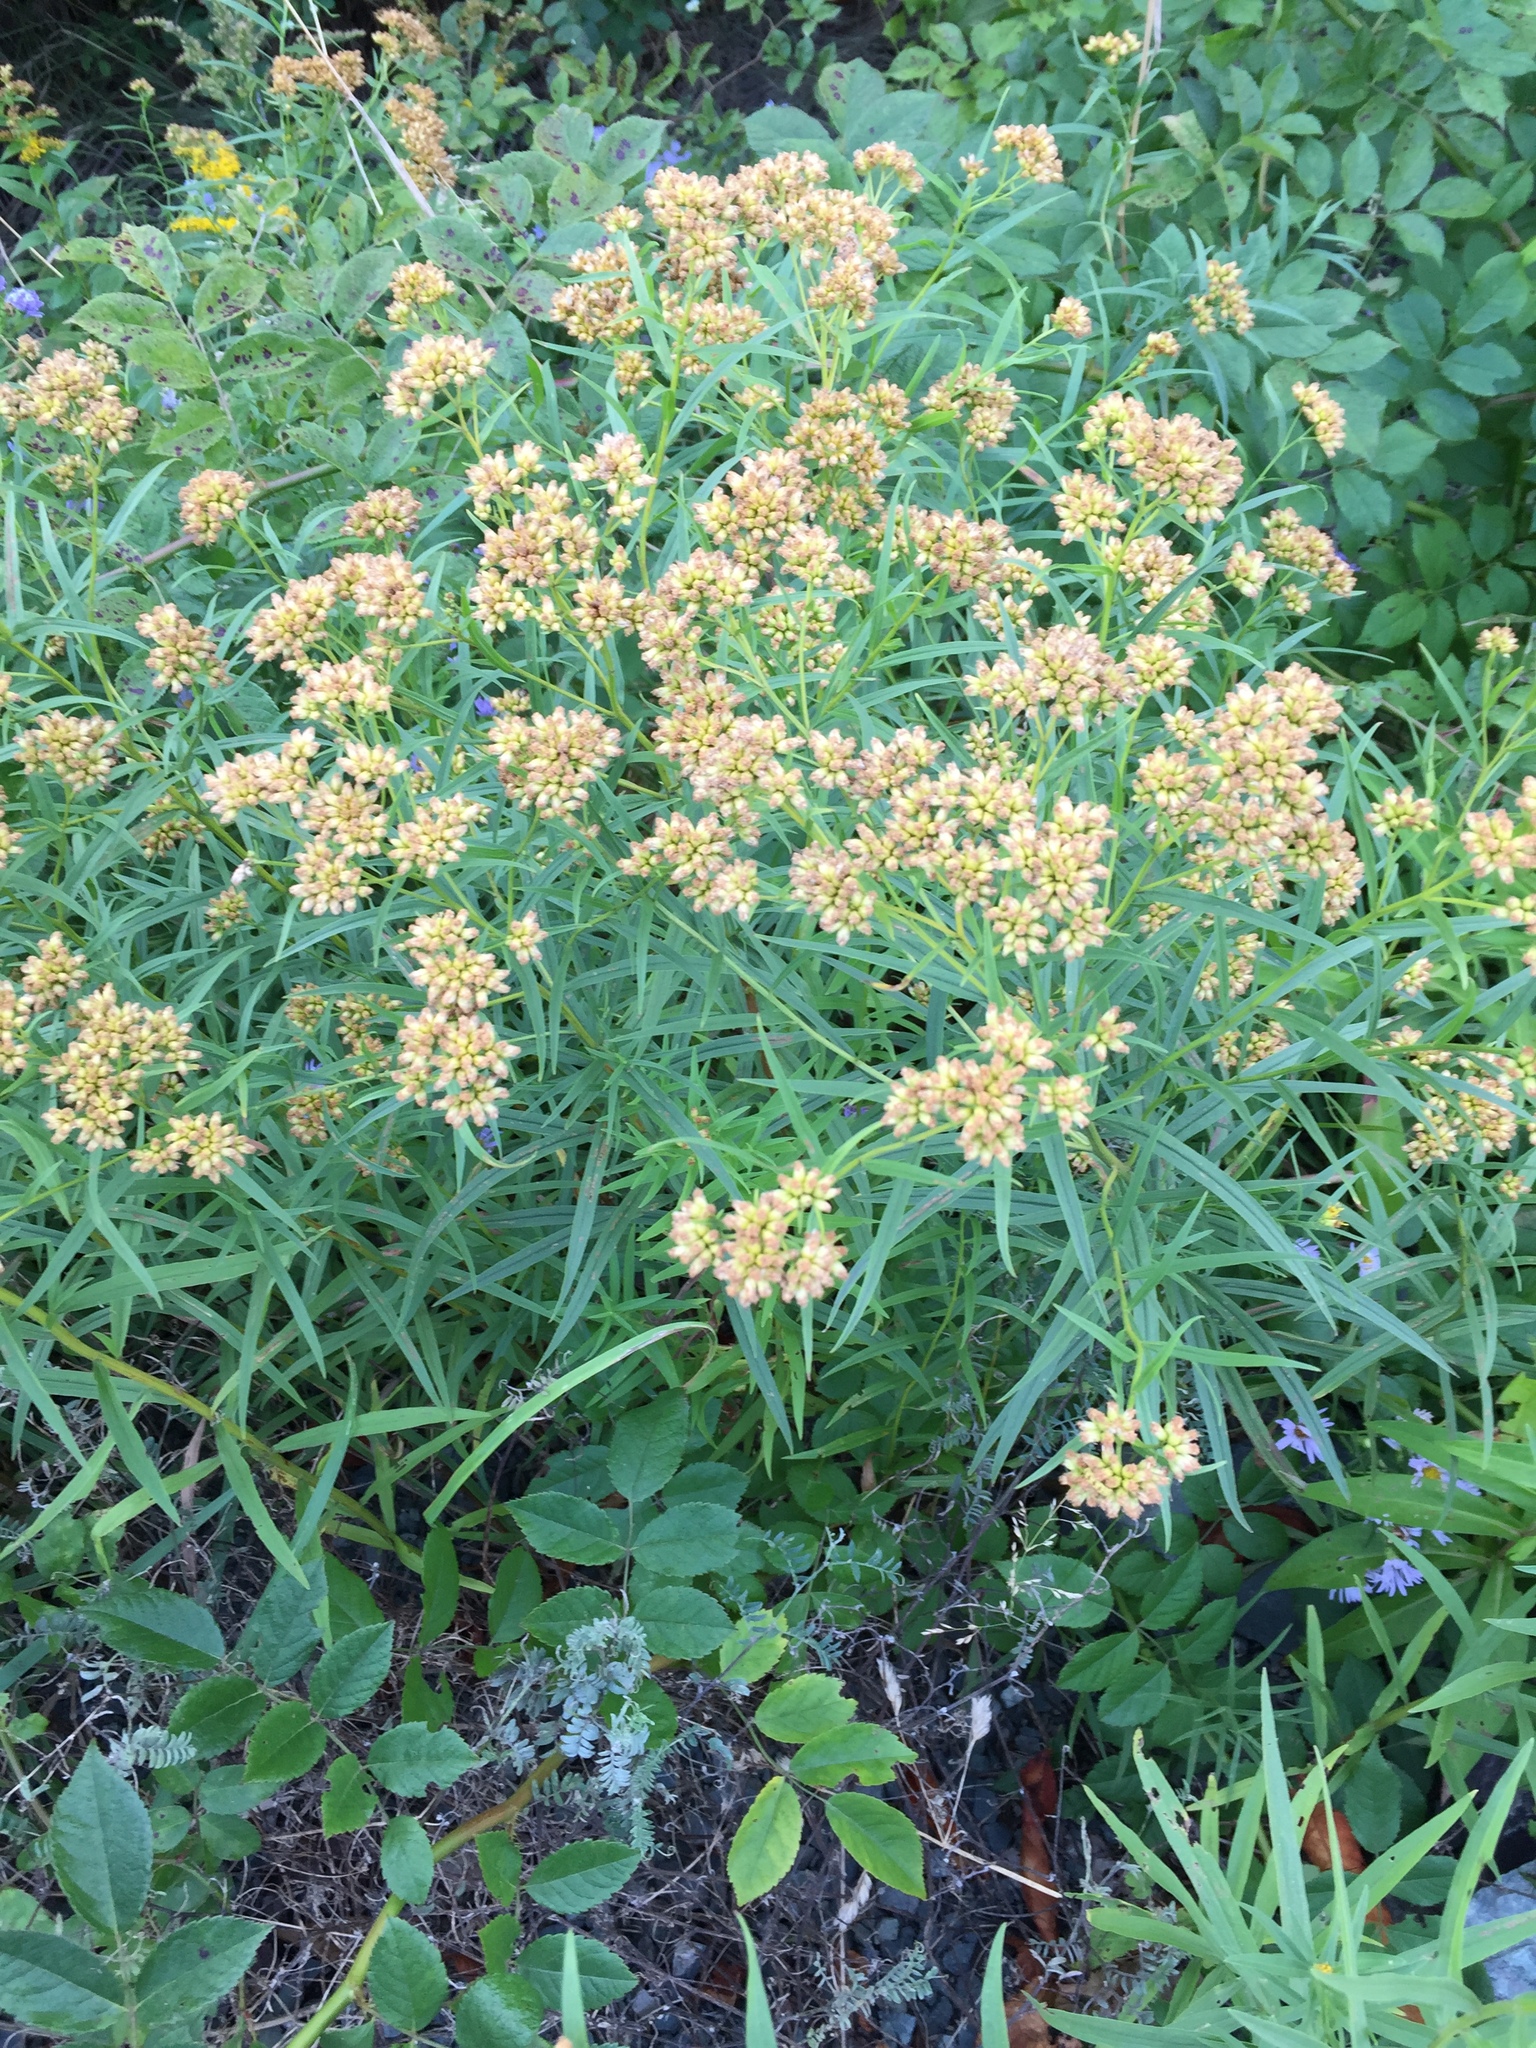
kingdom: Plantae
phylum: Tracheophyta
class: Magnoliopsida
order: Asterales
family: Asteraceae
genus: Euthamia
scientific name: Euthamia graminifolia
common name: Common goldentop
